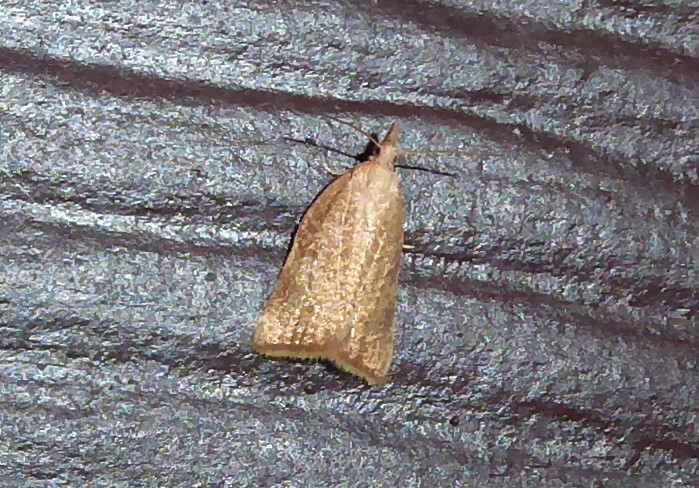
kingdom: Animalia
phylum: Arthropoda
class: Insecta
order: Lepidoptera
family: Tortricidae
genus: Catamacta
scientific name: Catamacta gavisana
